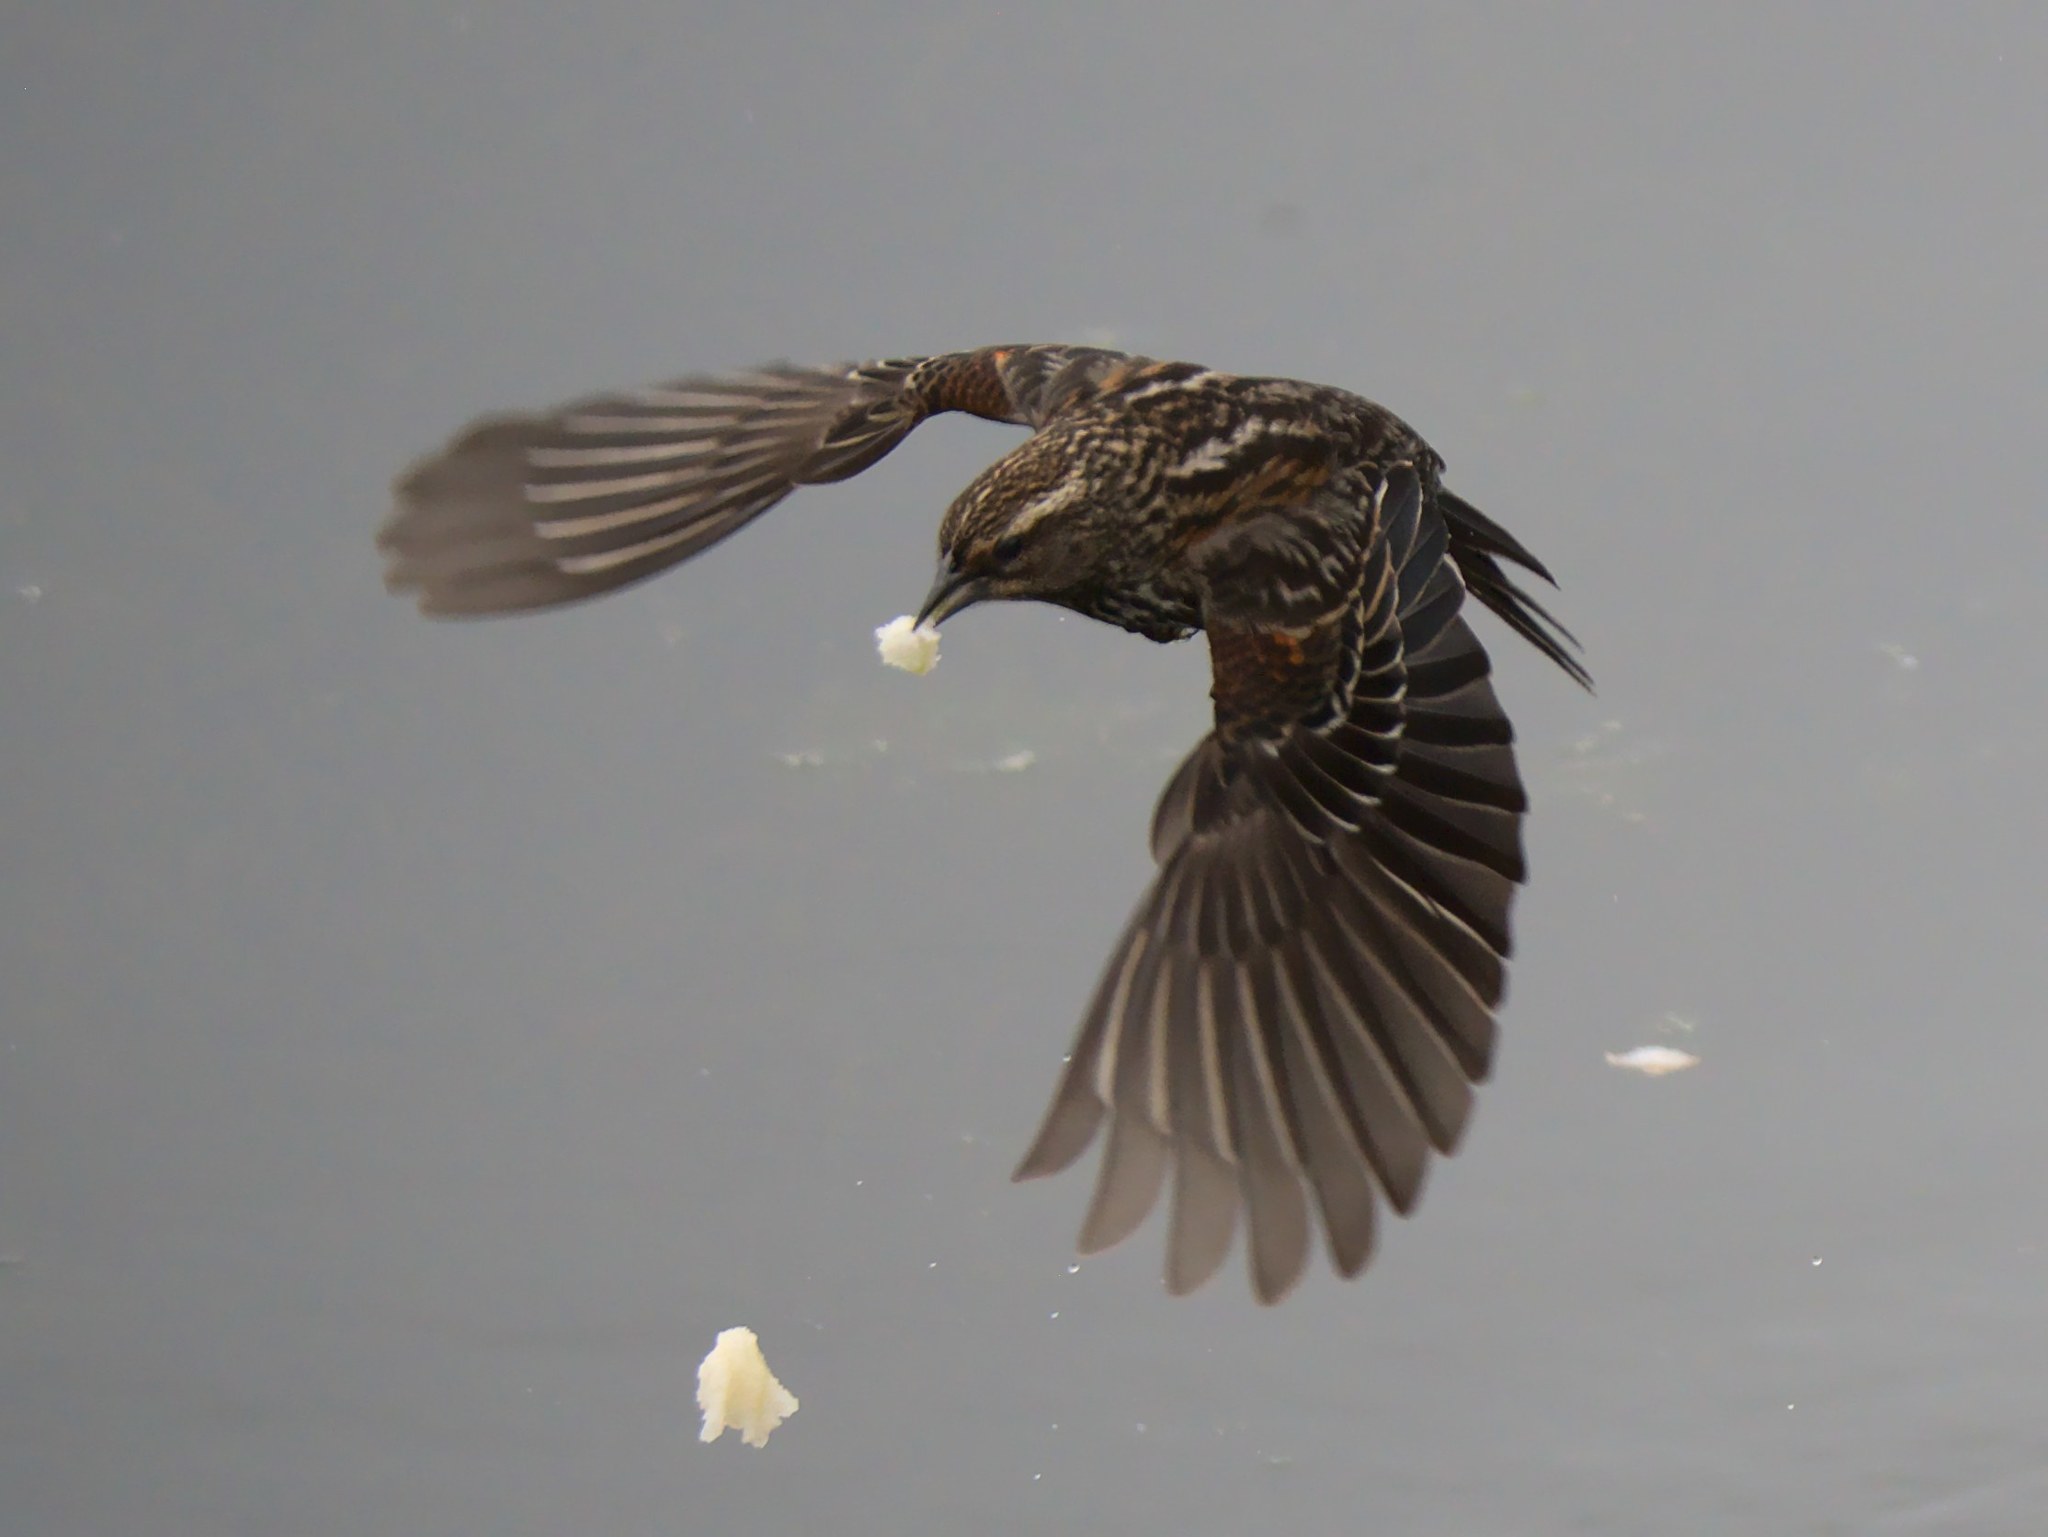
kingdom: Animalia
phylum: Chordata
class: Aves
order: Passeriformes
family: Icteridae
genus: Agelaius
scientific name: Agelaius phoeniceus
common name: Red-winged blackbird
